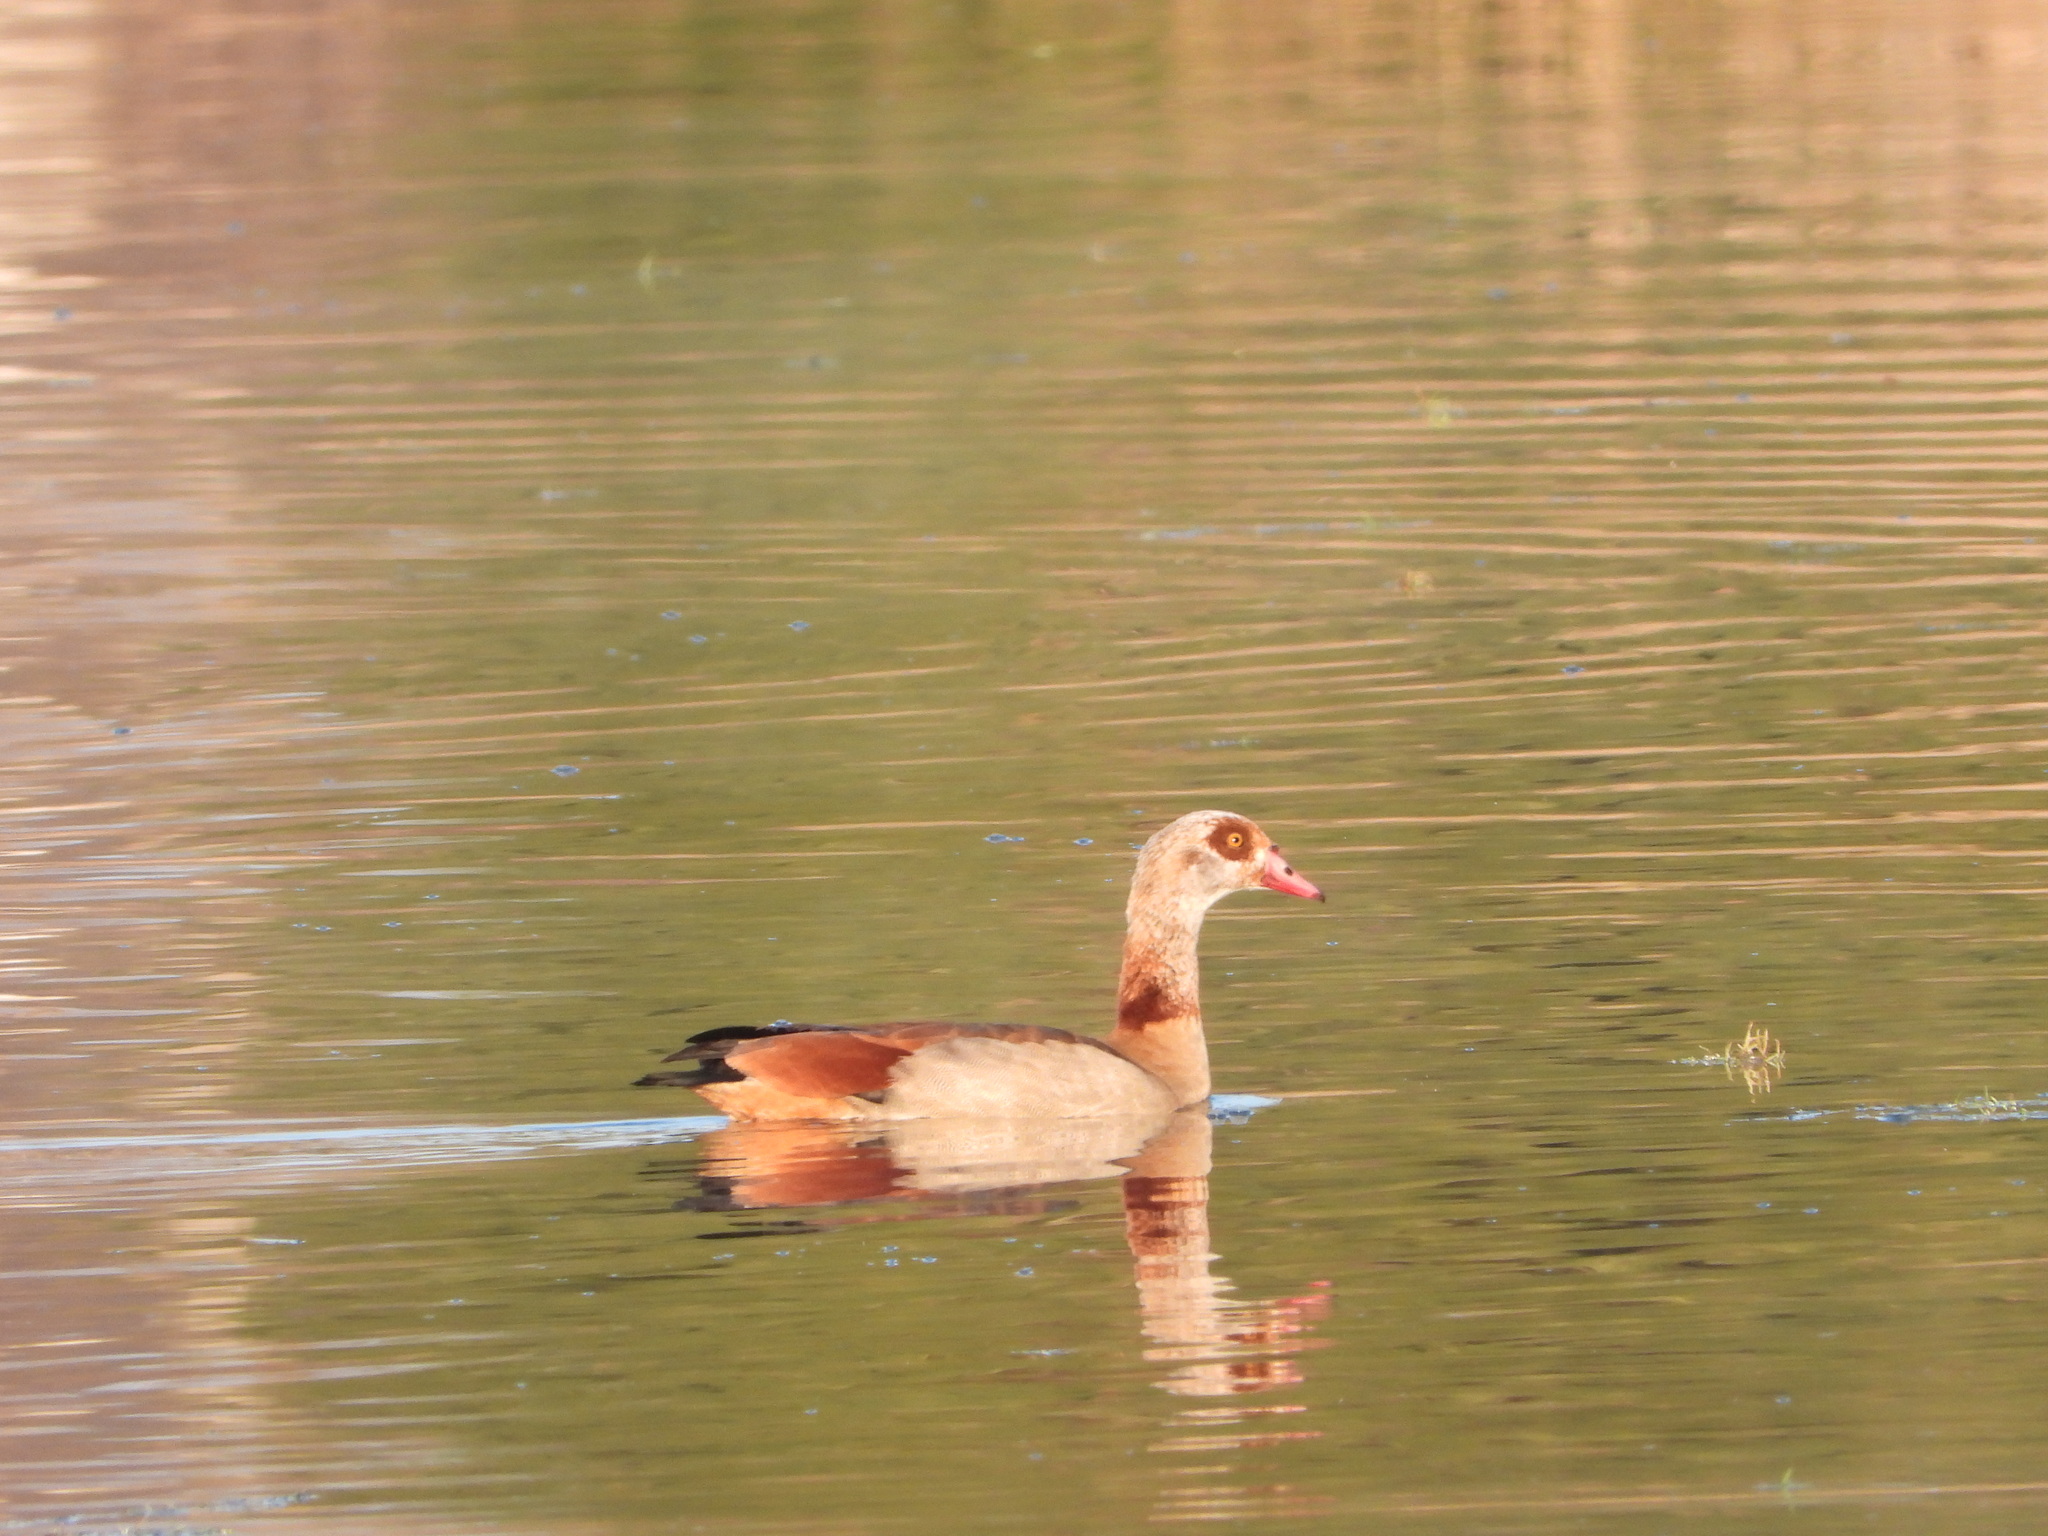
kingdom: Animalia
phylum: Chordata
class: Aves
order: Anseriformes
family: Anatidae
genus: Alopochen
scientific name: Alopochen aegyptiaca
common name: Egyptian goose
